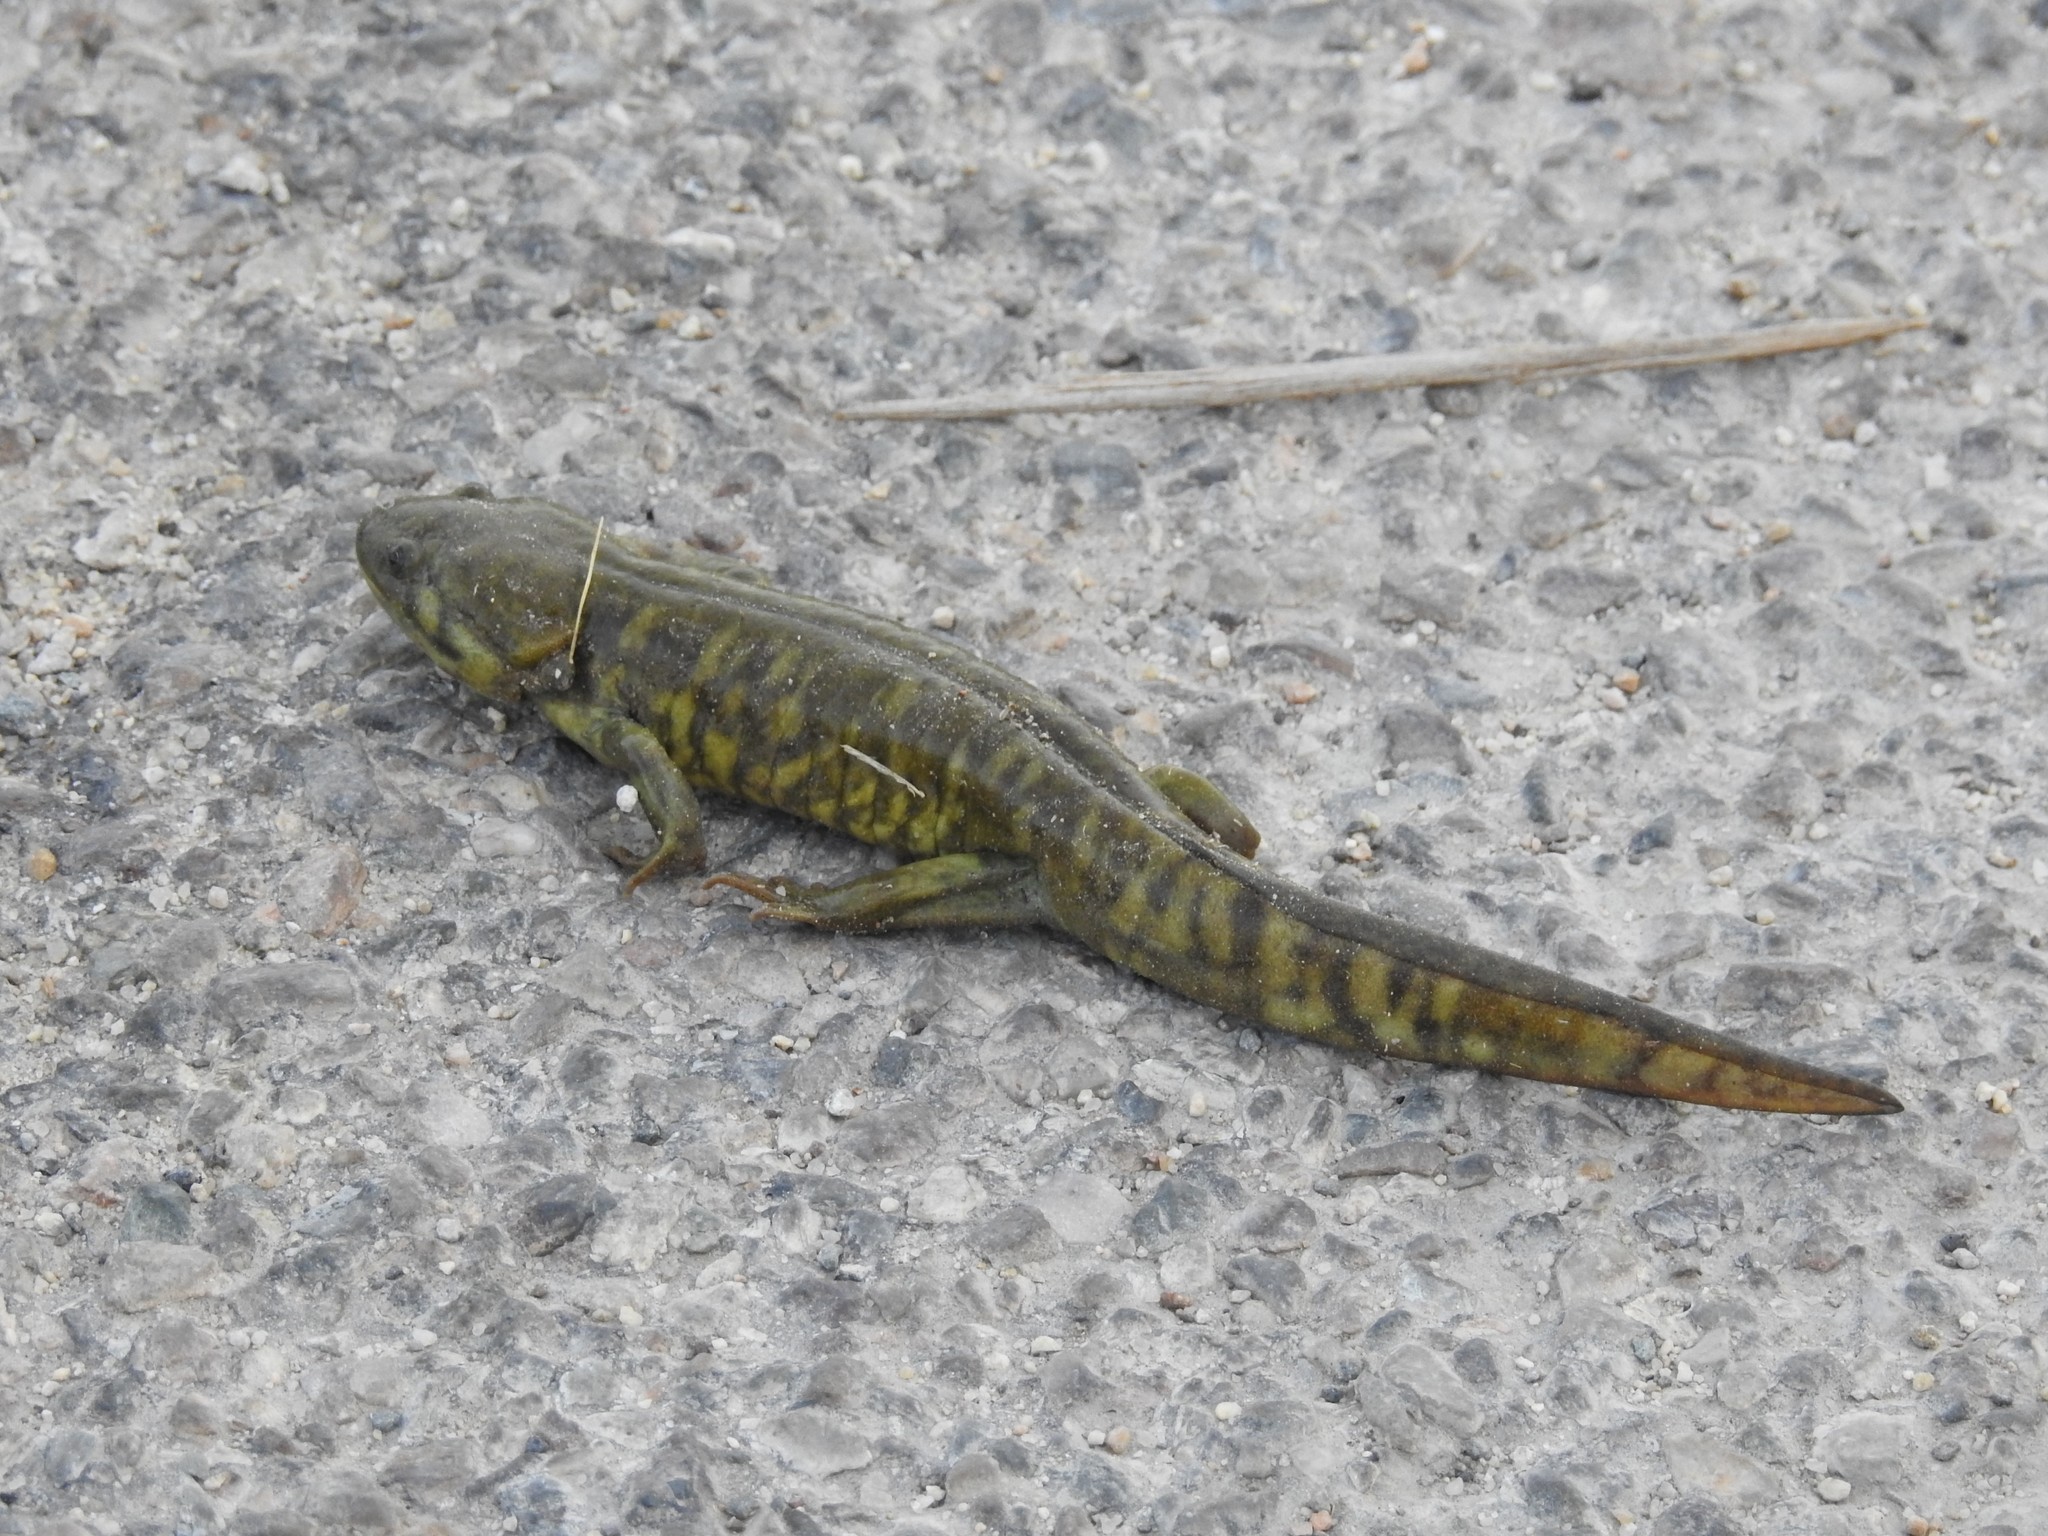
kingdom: Animalia
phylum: Chordata
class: Amphibia
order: Caudata
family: Ambystomatidae
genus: Ambystoma
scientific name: Ambystoma mavortium
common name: Western tiger salamander
